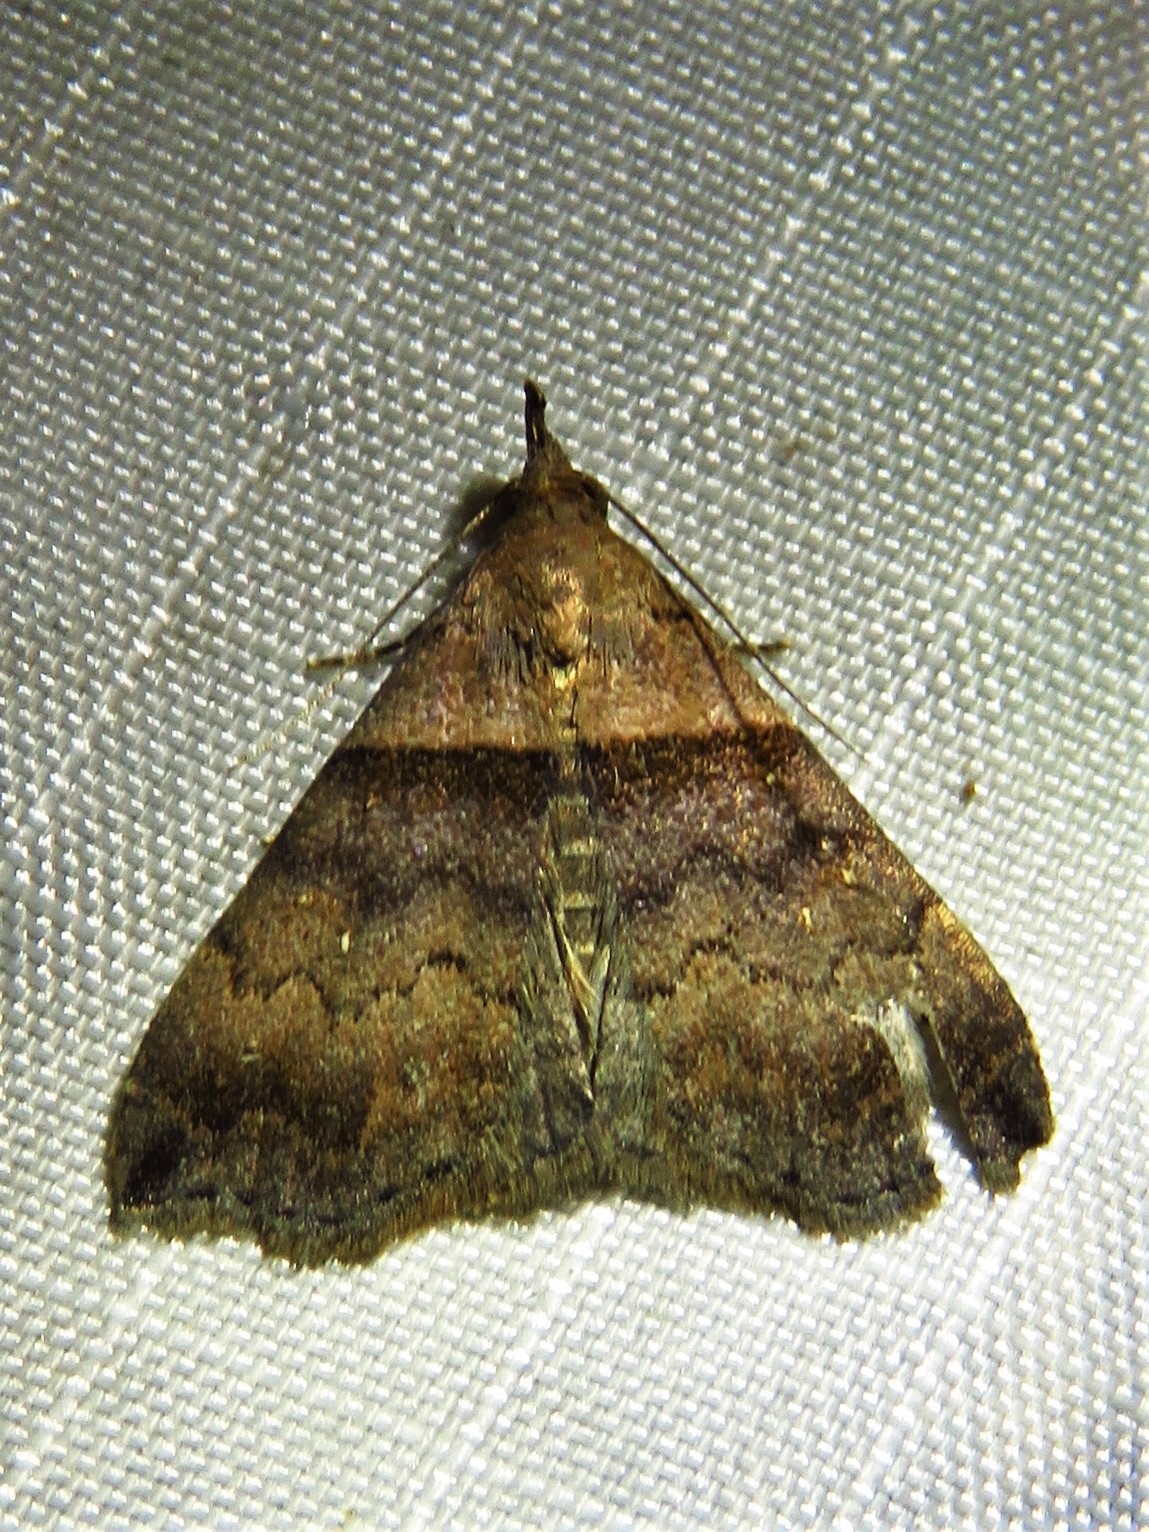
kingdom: Animalia
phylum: Arthropoda
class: Insecta
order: Lepidoptera
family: Erebidae
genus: Lascoria
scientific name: Lascoria ambigualis
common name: Ambiguous moth
